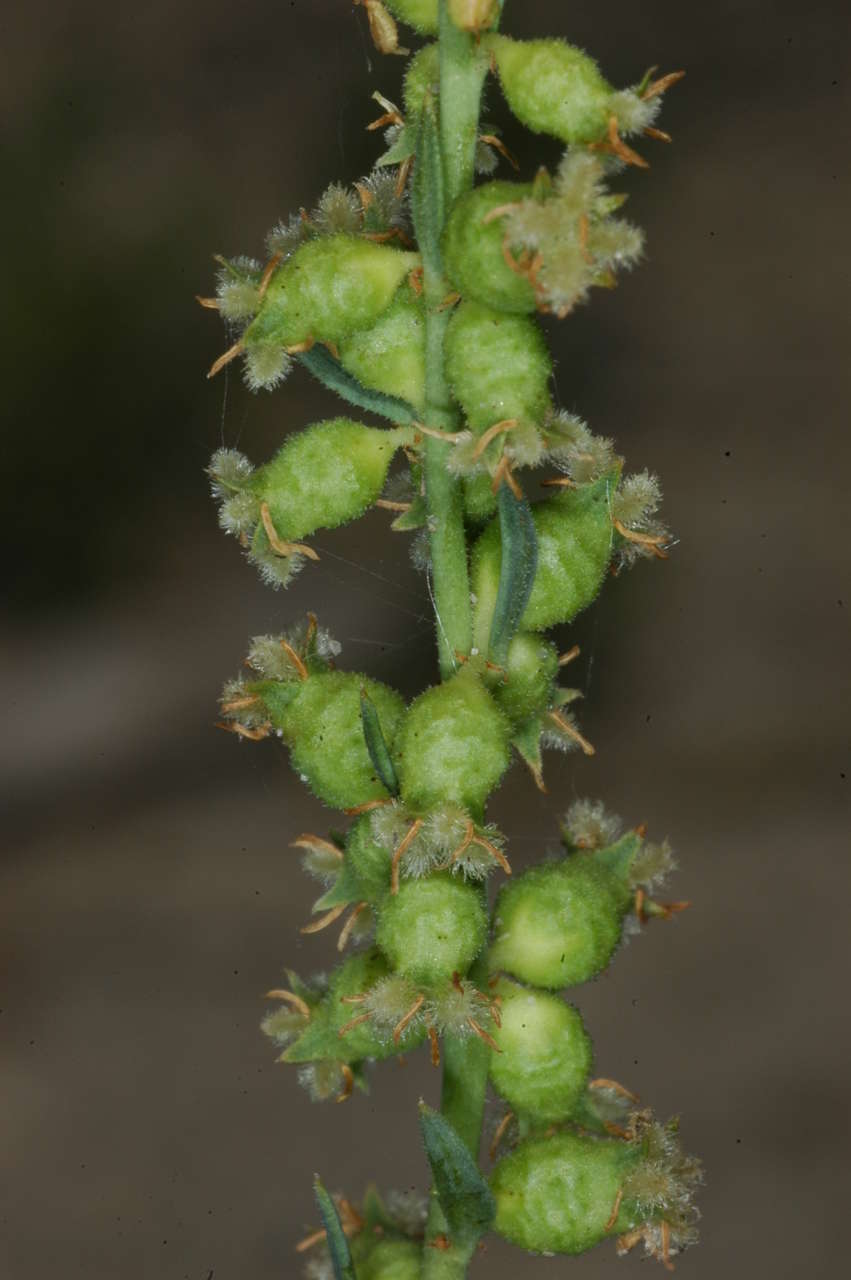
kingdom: Plantae
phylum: Tracheophyta
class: Magnoliopsida
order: Saxifragales
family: Haloragaceae
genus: Haloragis
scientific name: Haloragis aspera
